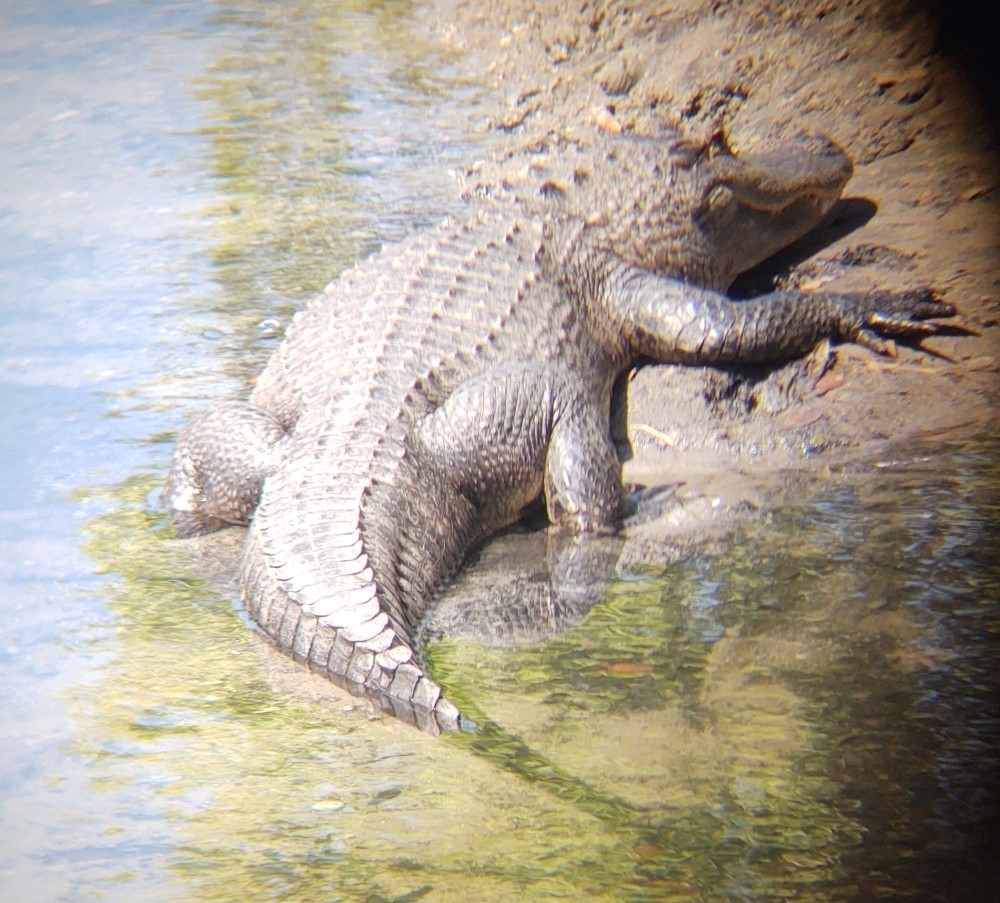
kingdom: Animalia
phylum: Chordata
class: Crocodylia
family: Alligatoridae
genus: Alligator
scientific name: Alligator mississippiensis
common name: American alligator
